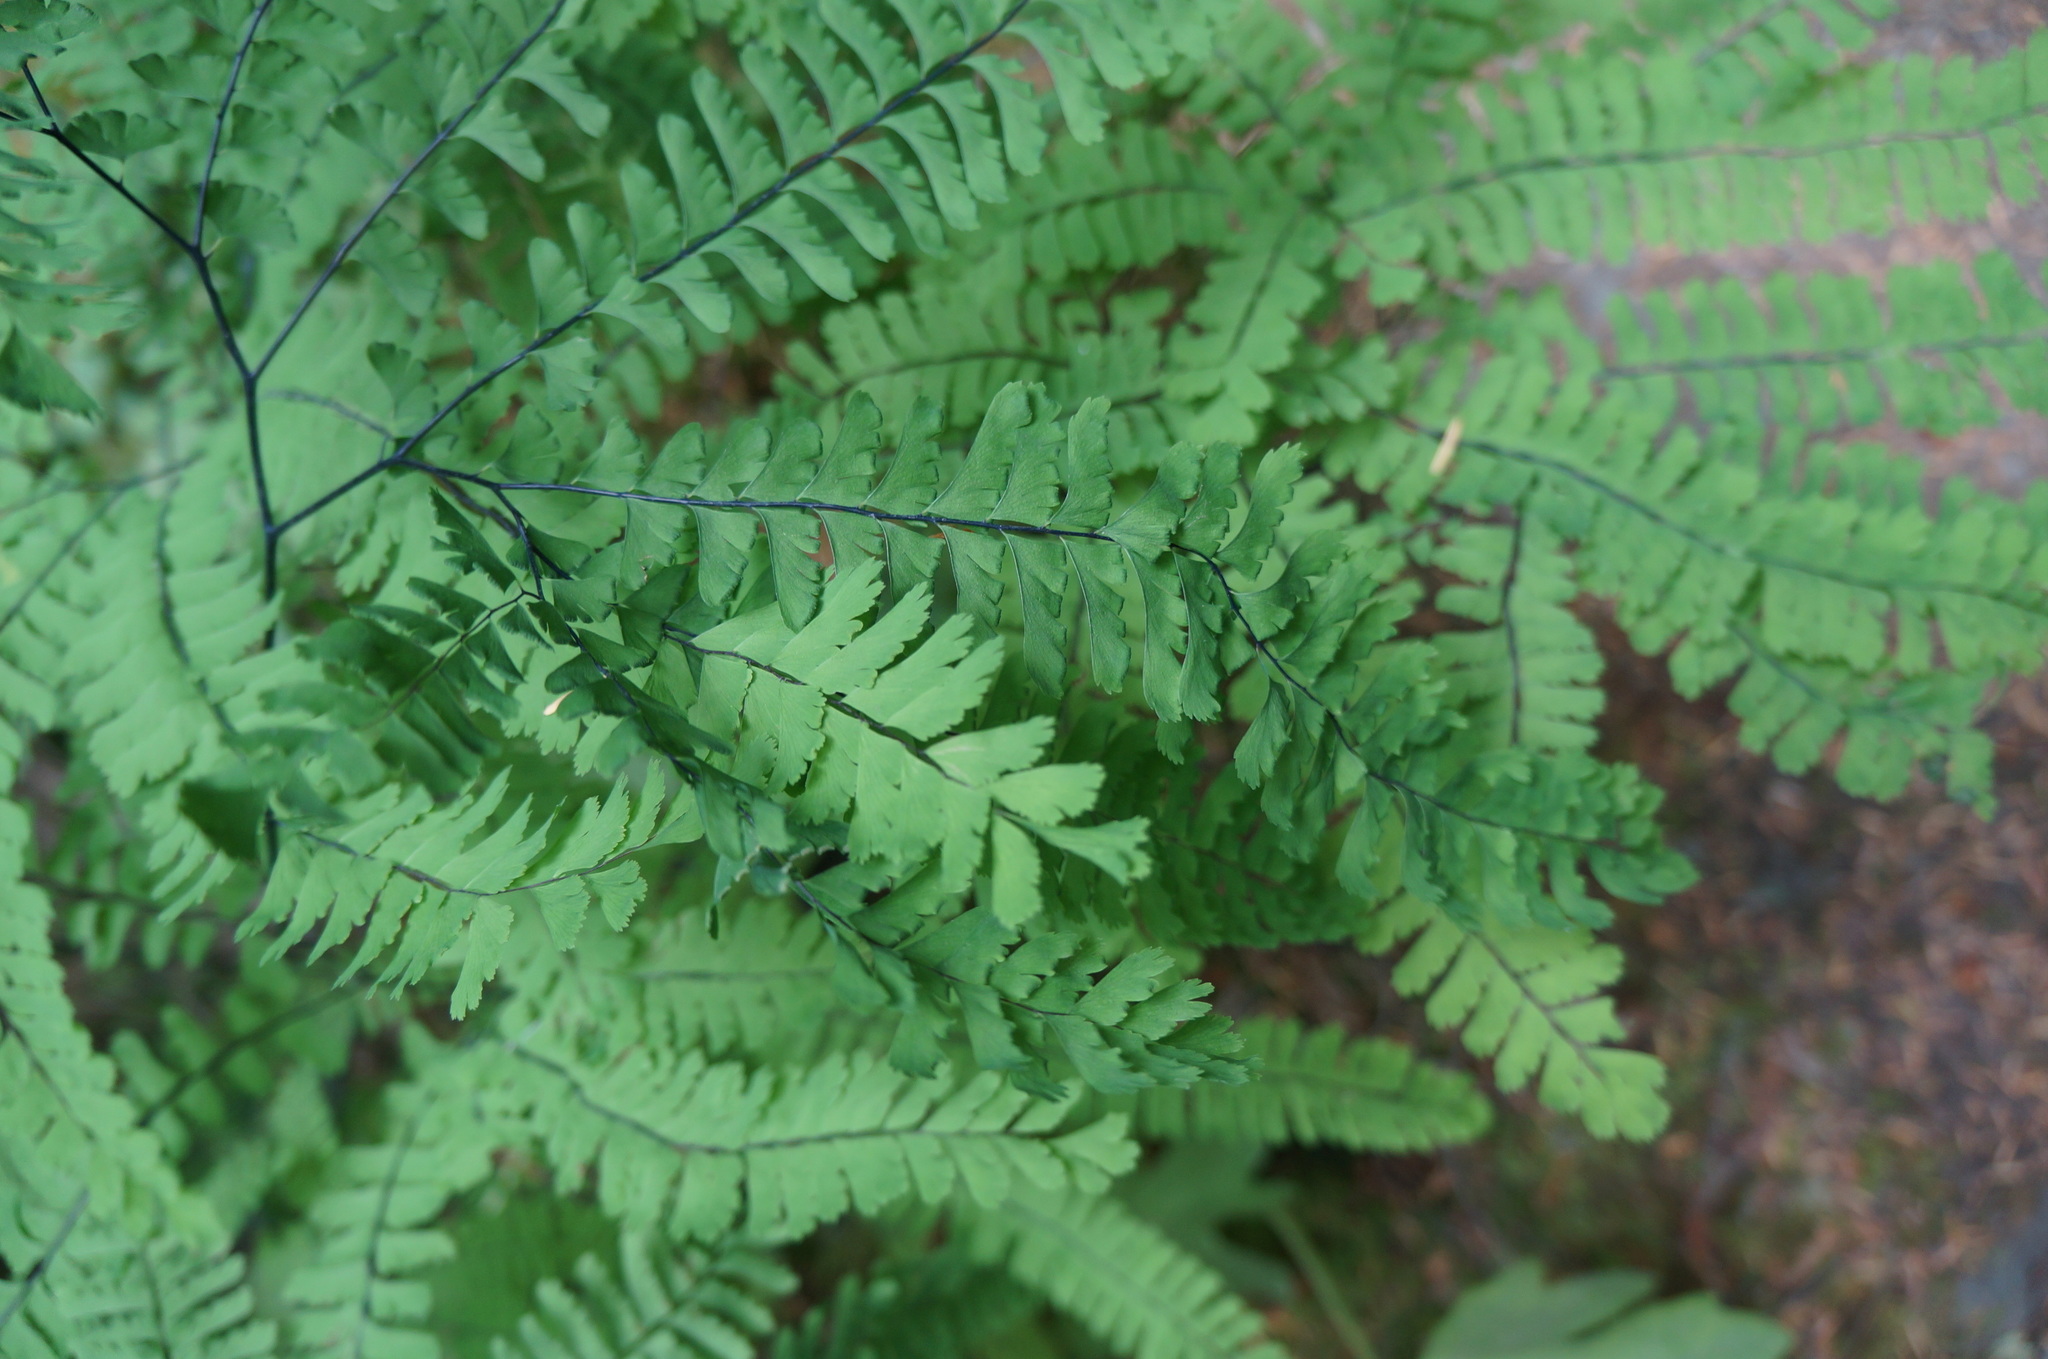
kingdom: Plantae
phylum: Tracheophyta
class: Polypodiopsida
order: Polypodiales
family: Pteridaceae
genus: Adiantum
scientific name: Adiantum aleuticum
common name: Aleutian maidenhair fern
